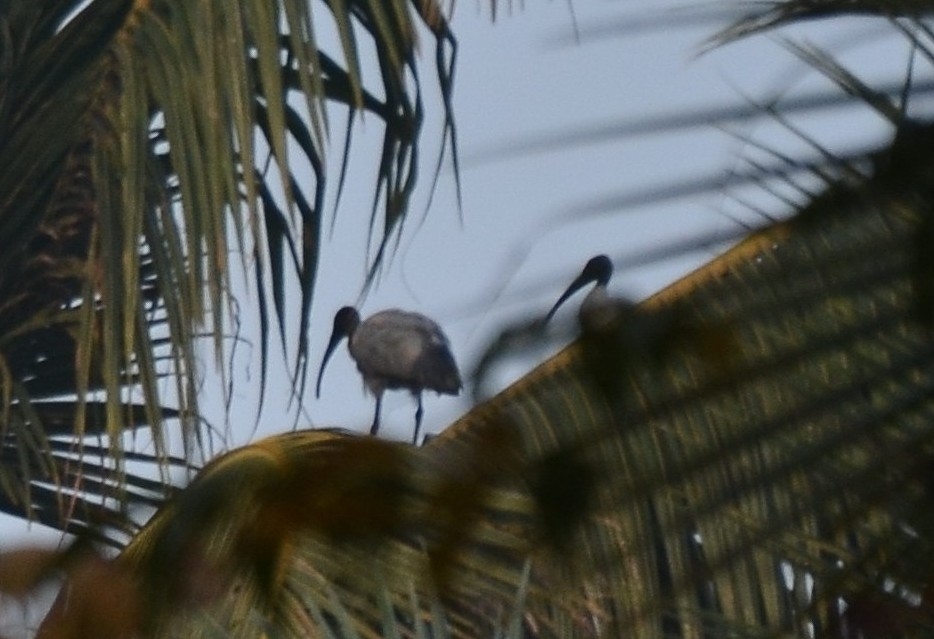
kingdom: Animalia
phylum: Chordata
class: Aves
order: Pelecaniformes
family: Threskiornithidae
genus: Threskiornis
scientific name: Threskiornis melanocephalus
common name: Black-headed ibis
